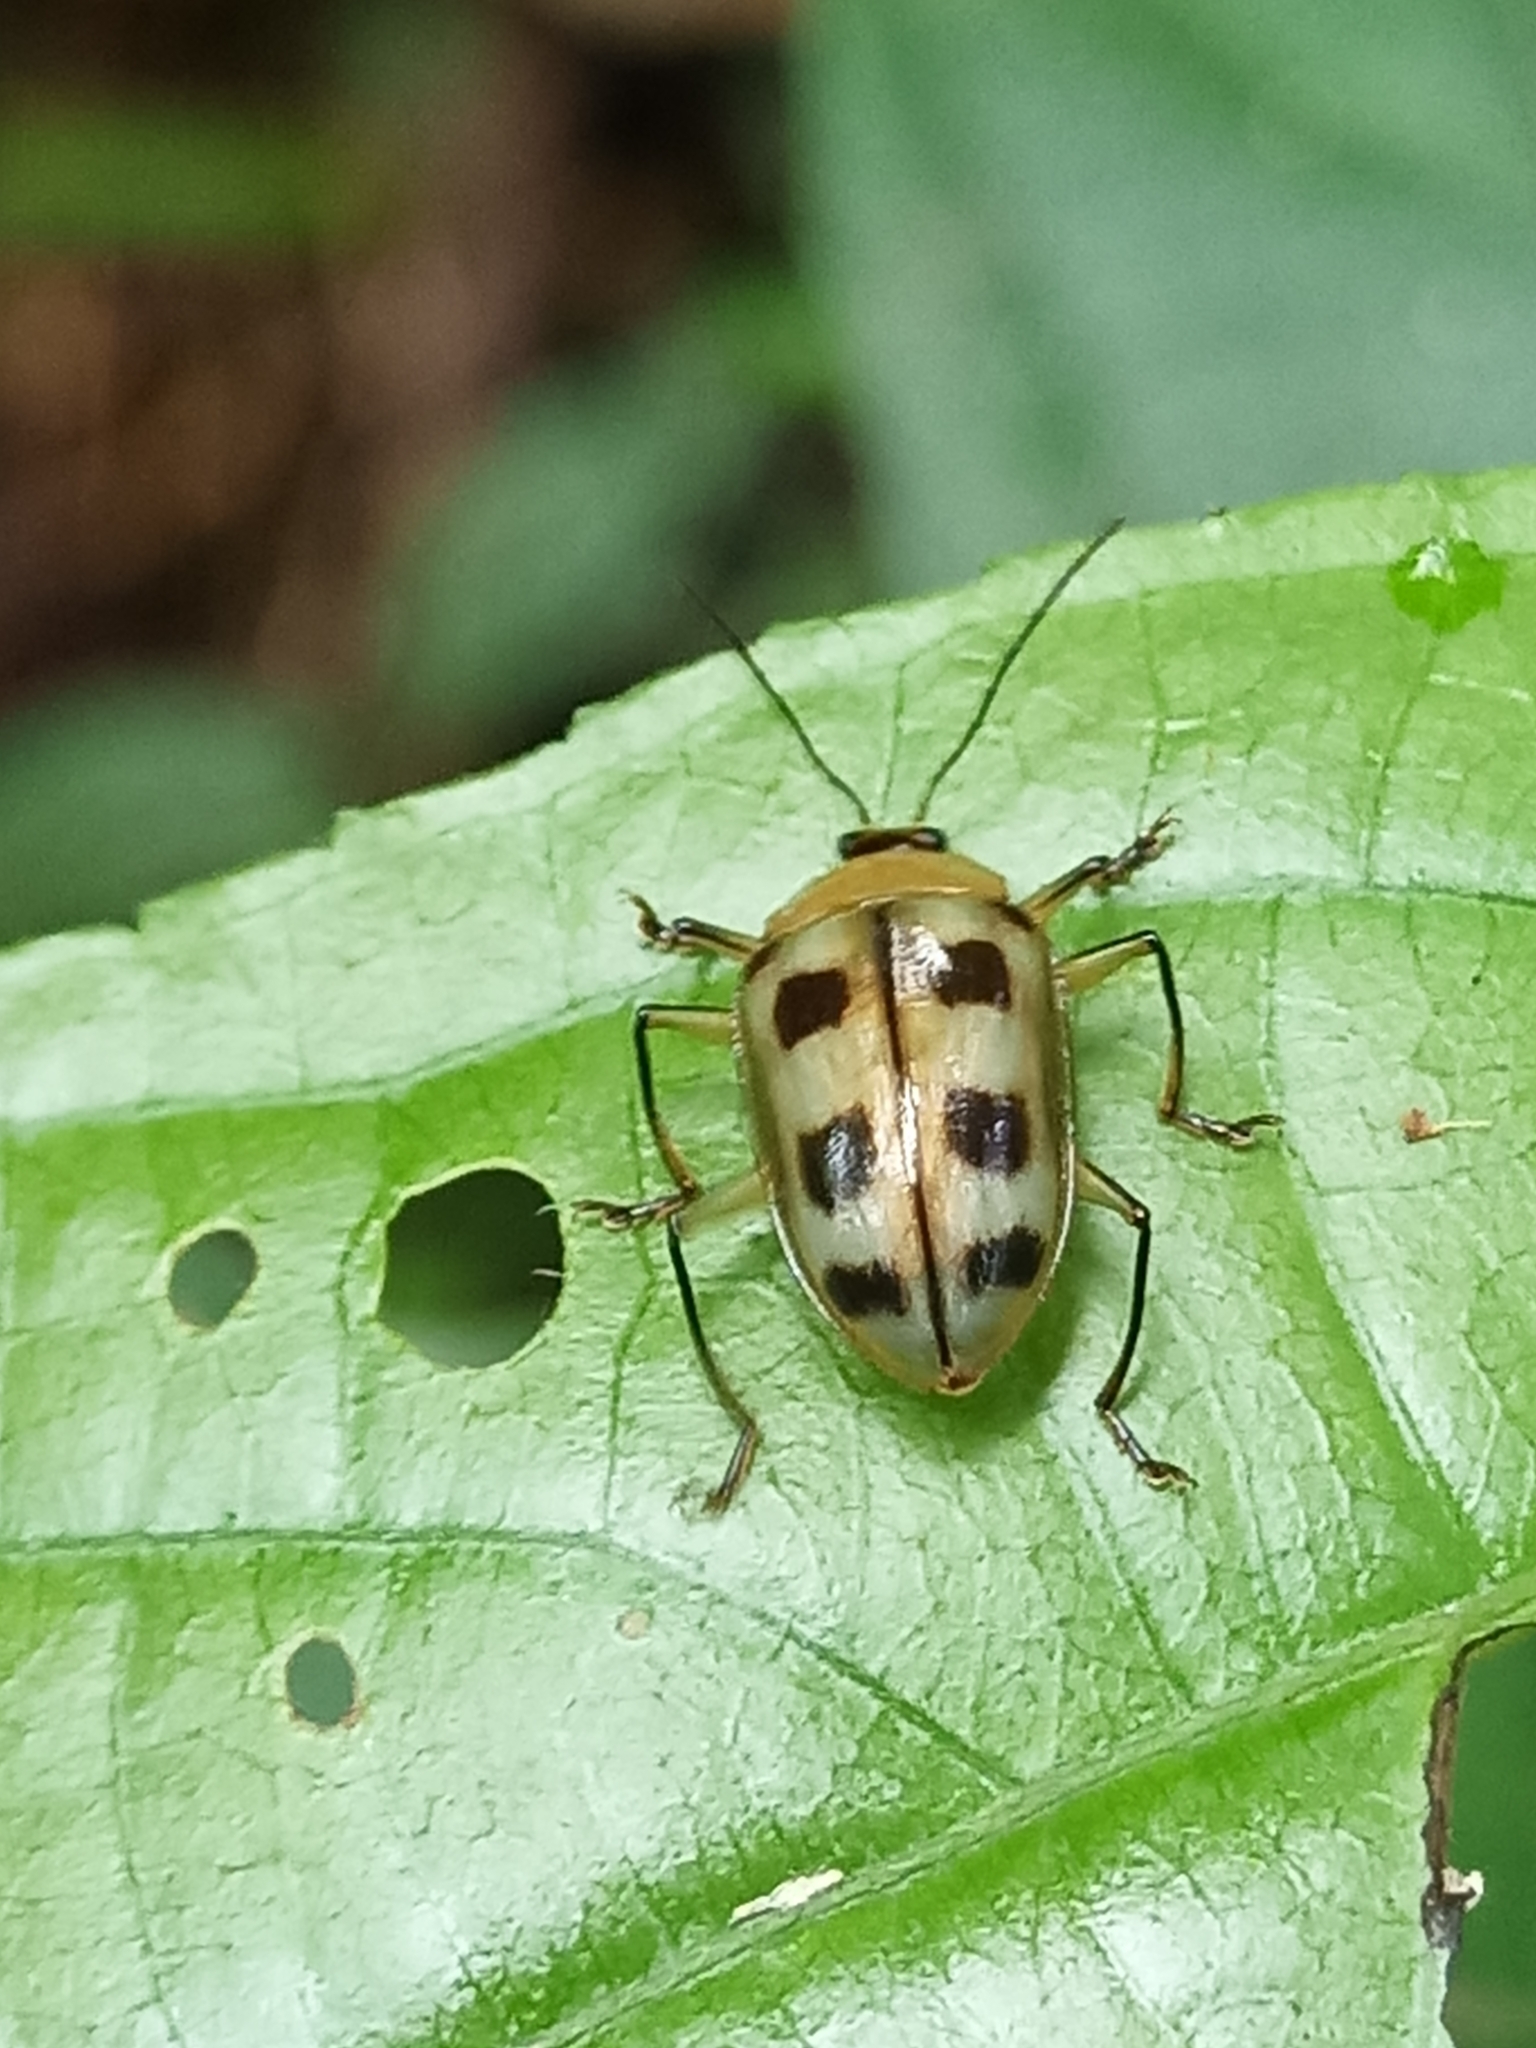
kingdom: Animalia
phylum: Arthropoda
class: Insecta
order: Coleoptera
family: Erotylidae
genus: Neopriotelus
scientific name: Neopriotelus octomaculatus
